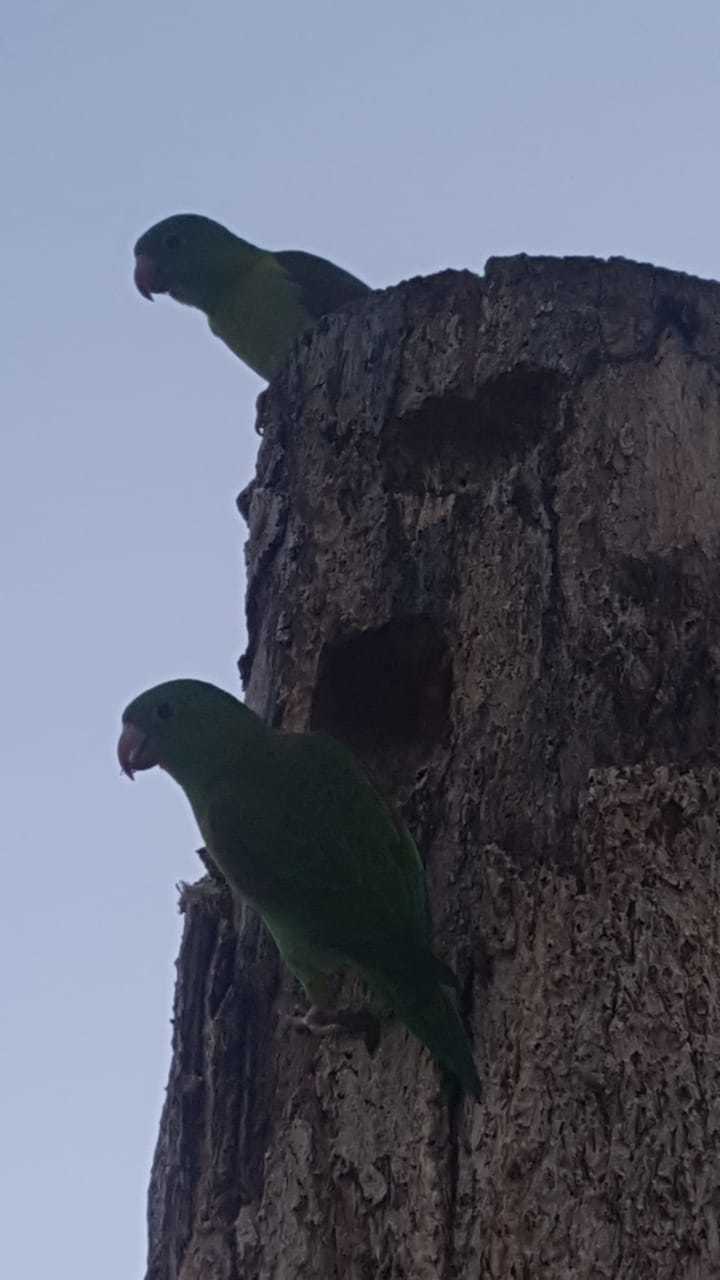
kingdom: Animalia
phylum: Chordata
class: Aves
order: Psittaciformes
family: Psittacidae
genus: Brotogeris
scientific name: Brotogeris jugularis
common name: Orange-chinned parakeet
